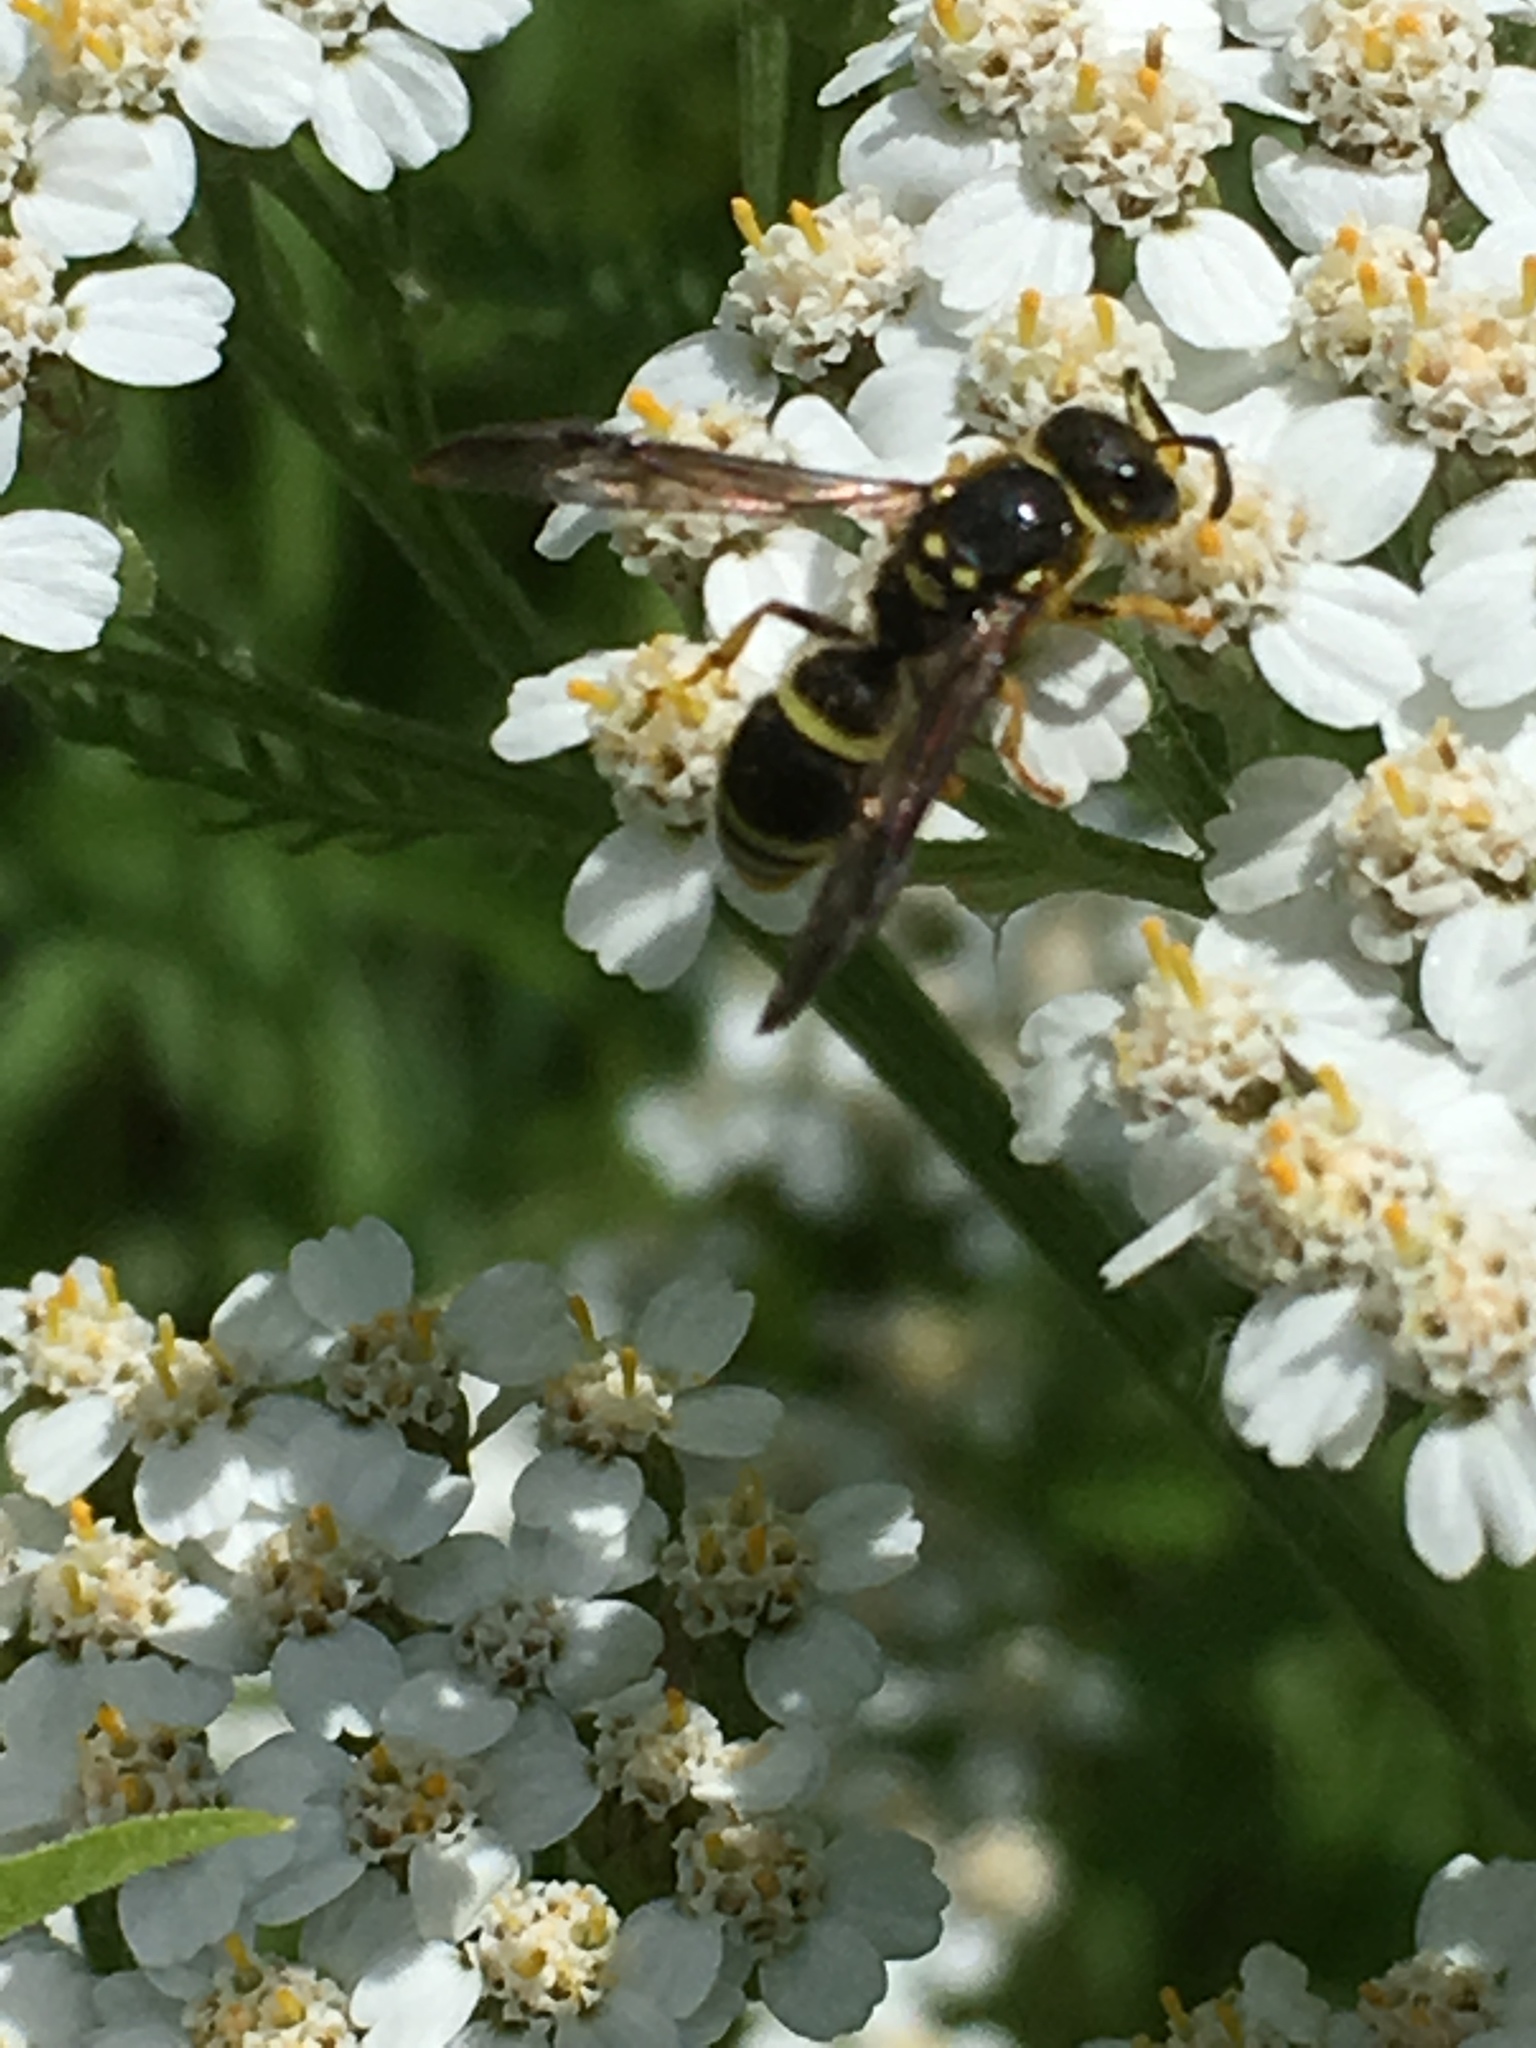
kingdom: Animalia
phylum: Arthropoda
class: Insecta
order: Hymenoptera
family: Vespidae
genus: Ancistrocerus
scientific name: Ancistrocerus adiabatus
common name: Bramble mason wasp
